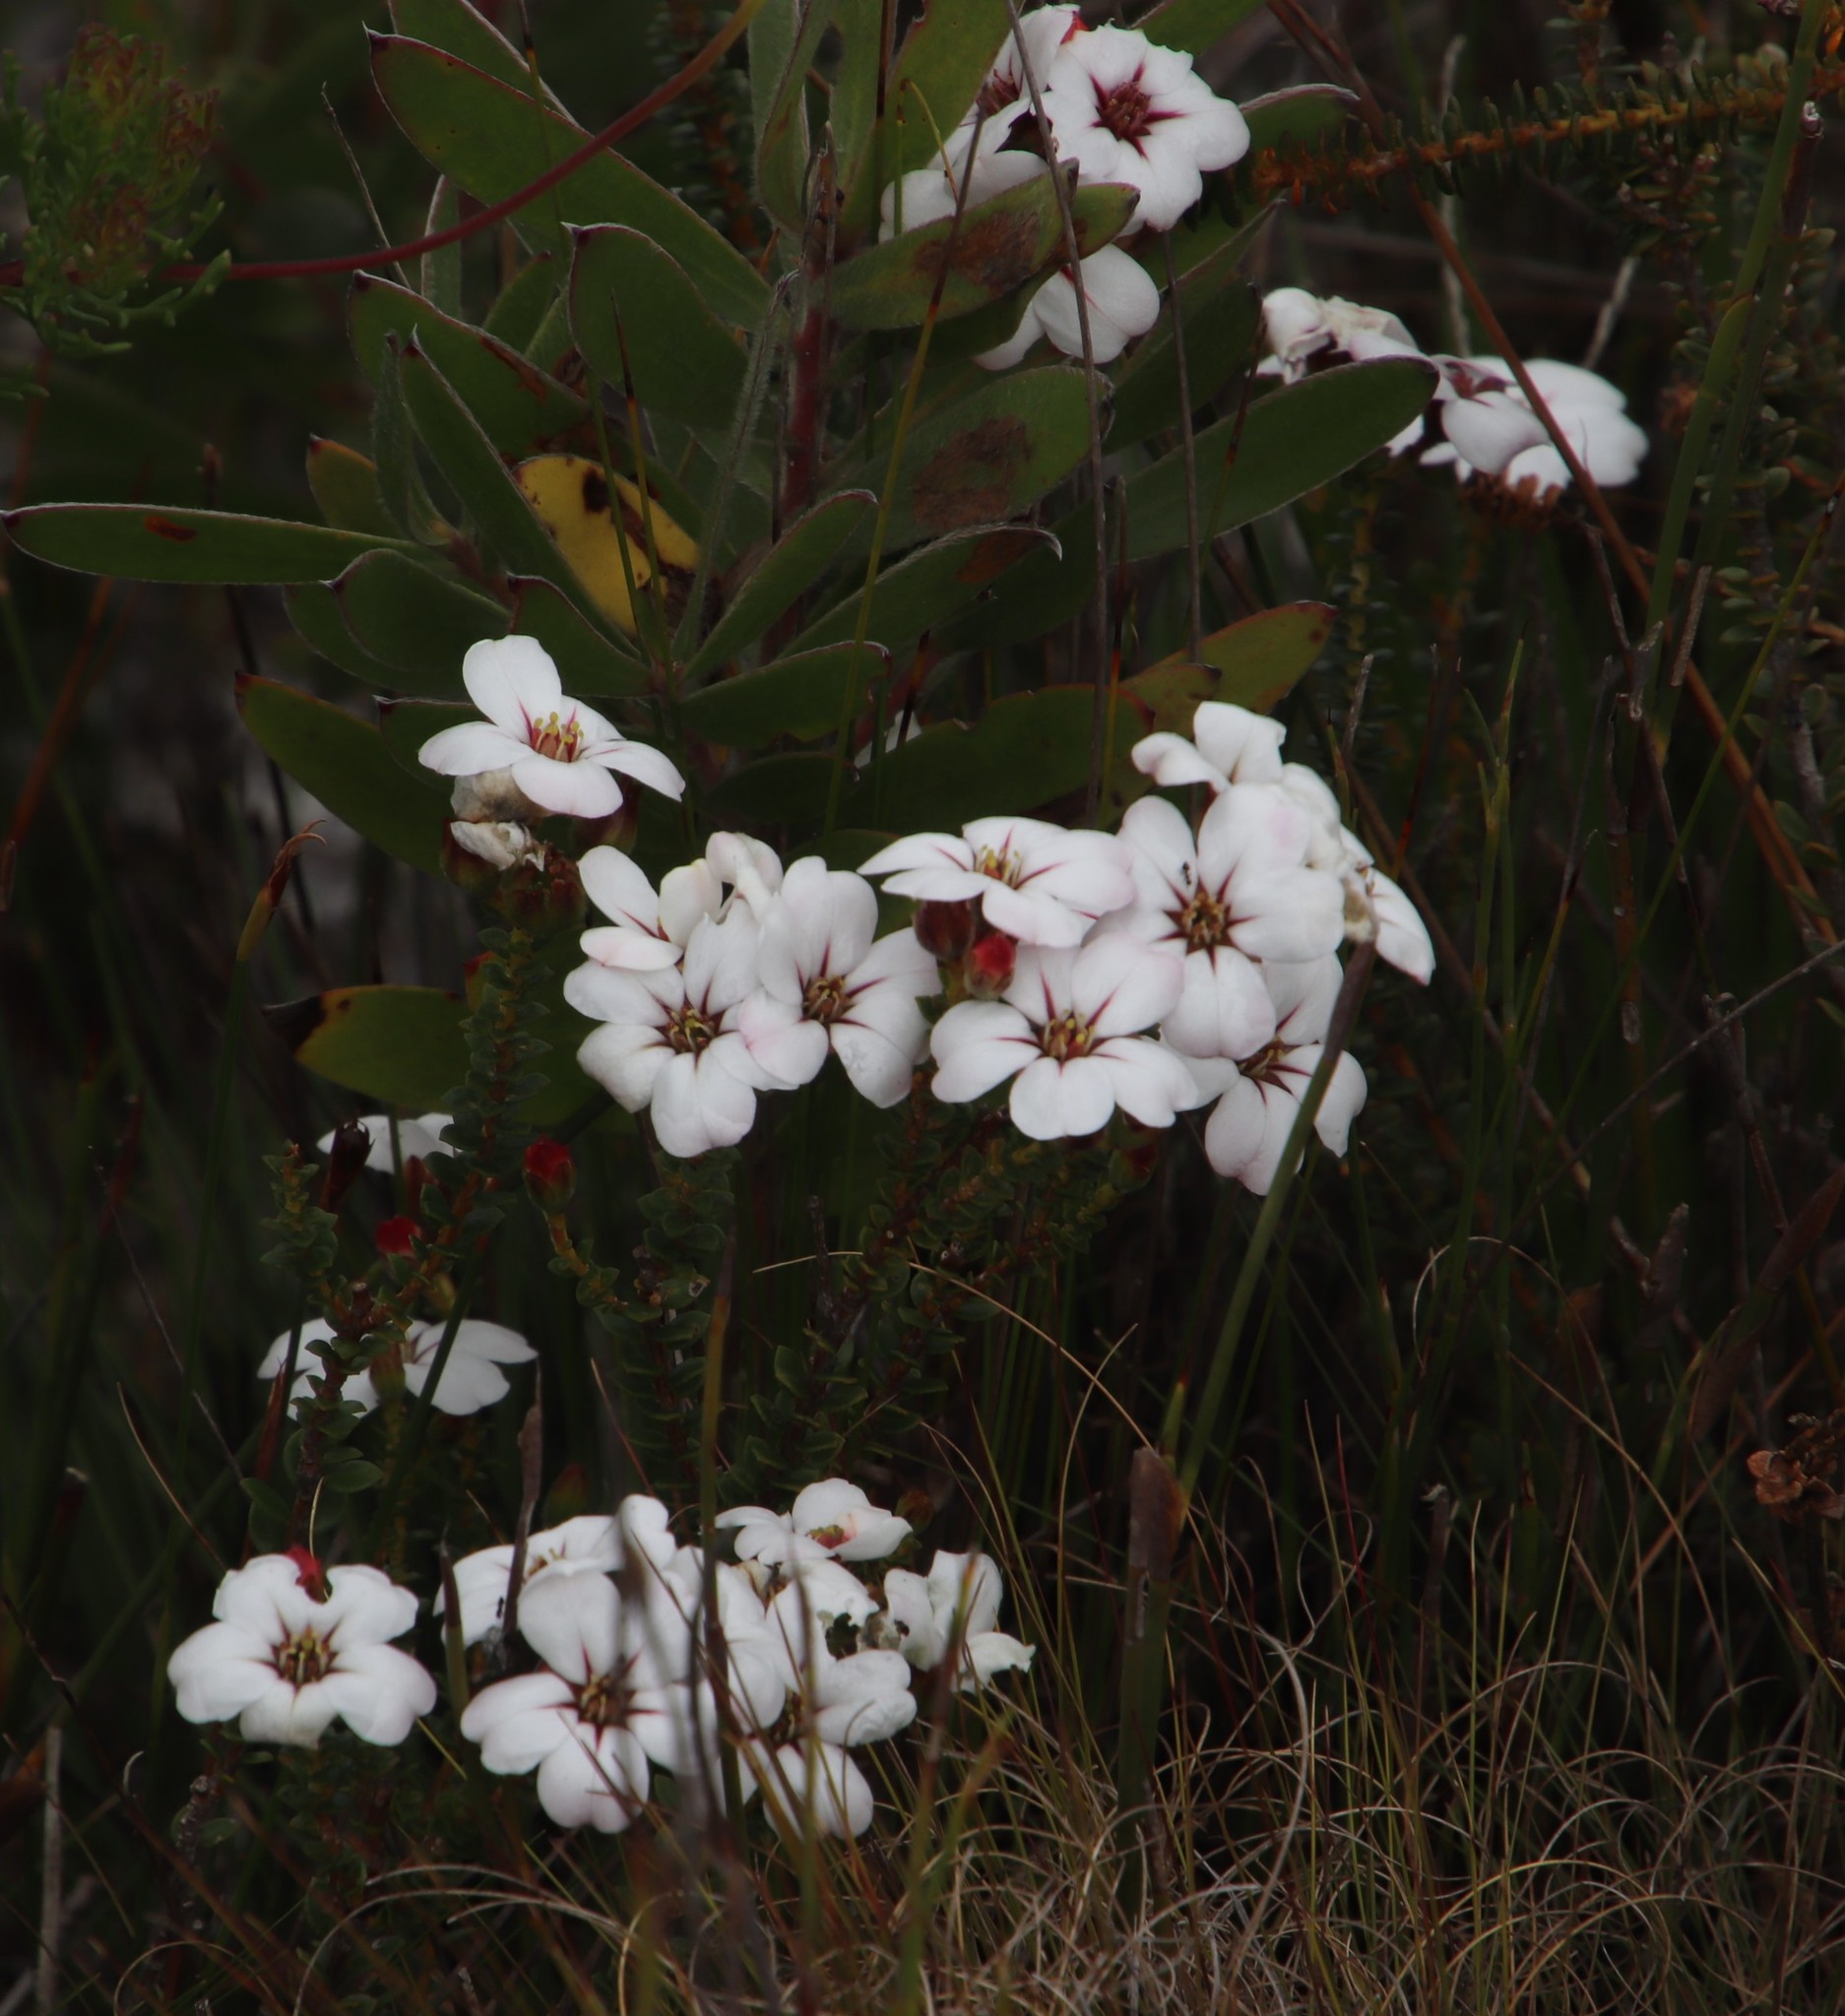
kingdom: Plantae
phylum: Tracheophyta
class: Magnoliopsida
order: Sapindales
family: Rutaceae
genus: Adenandra
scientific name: Adenandra villosa
